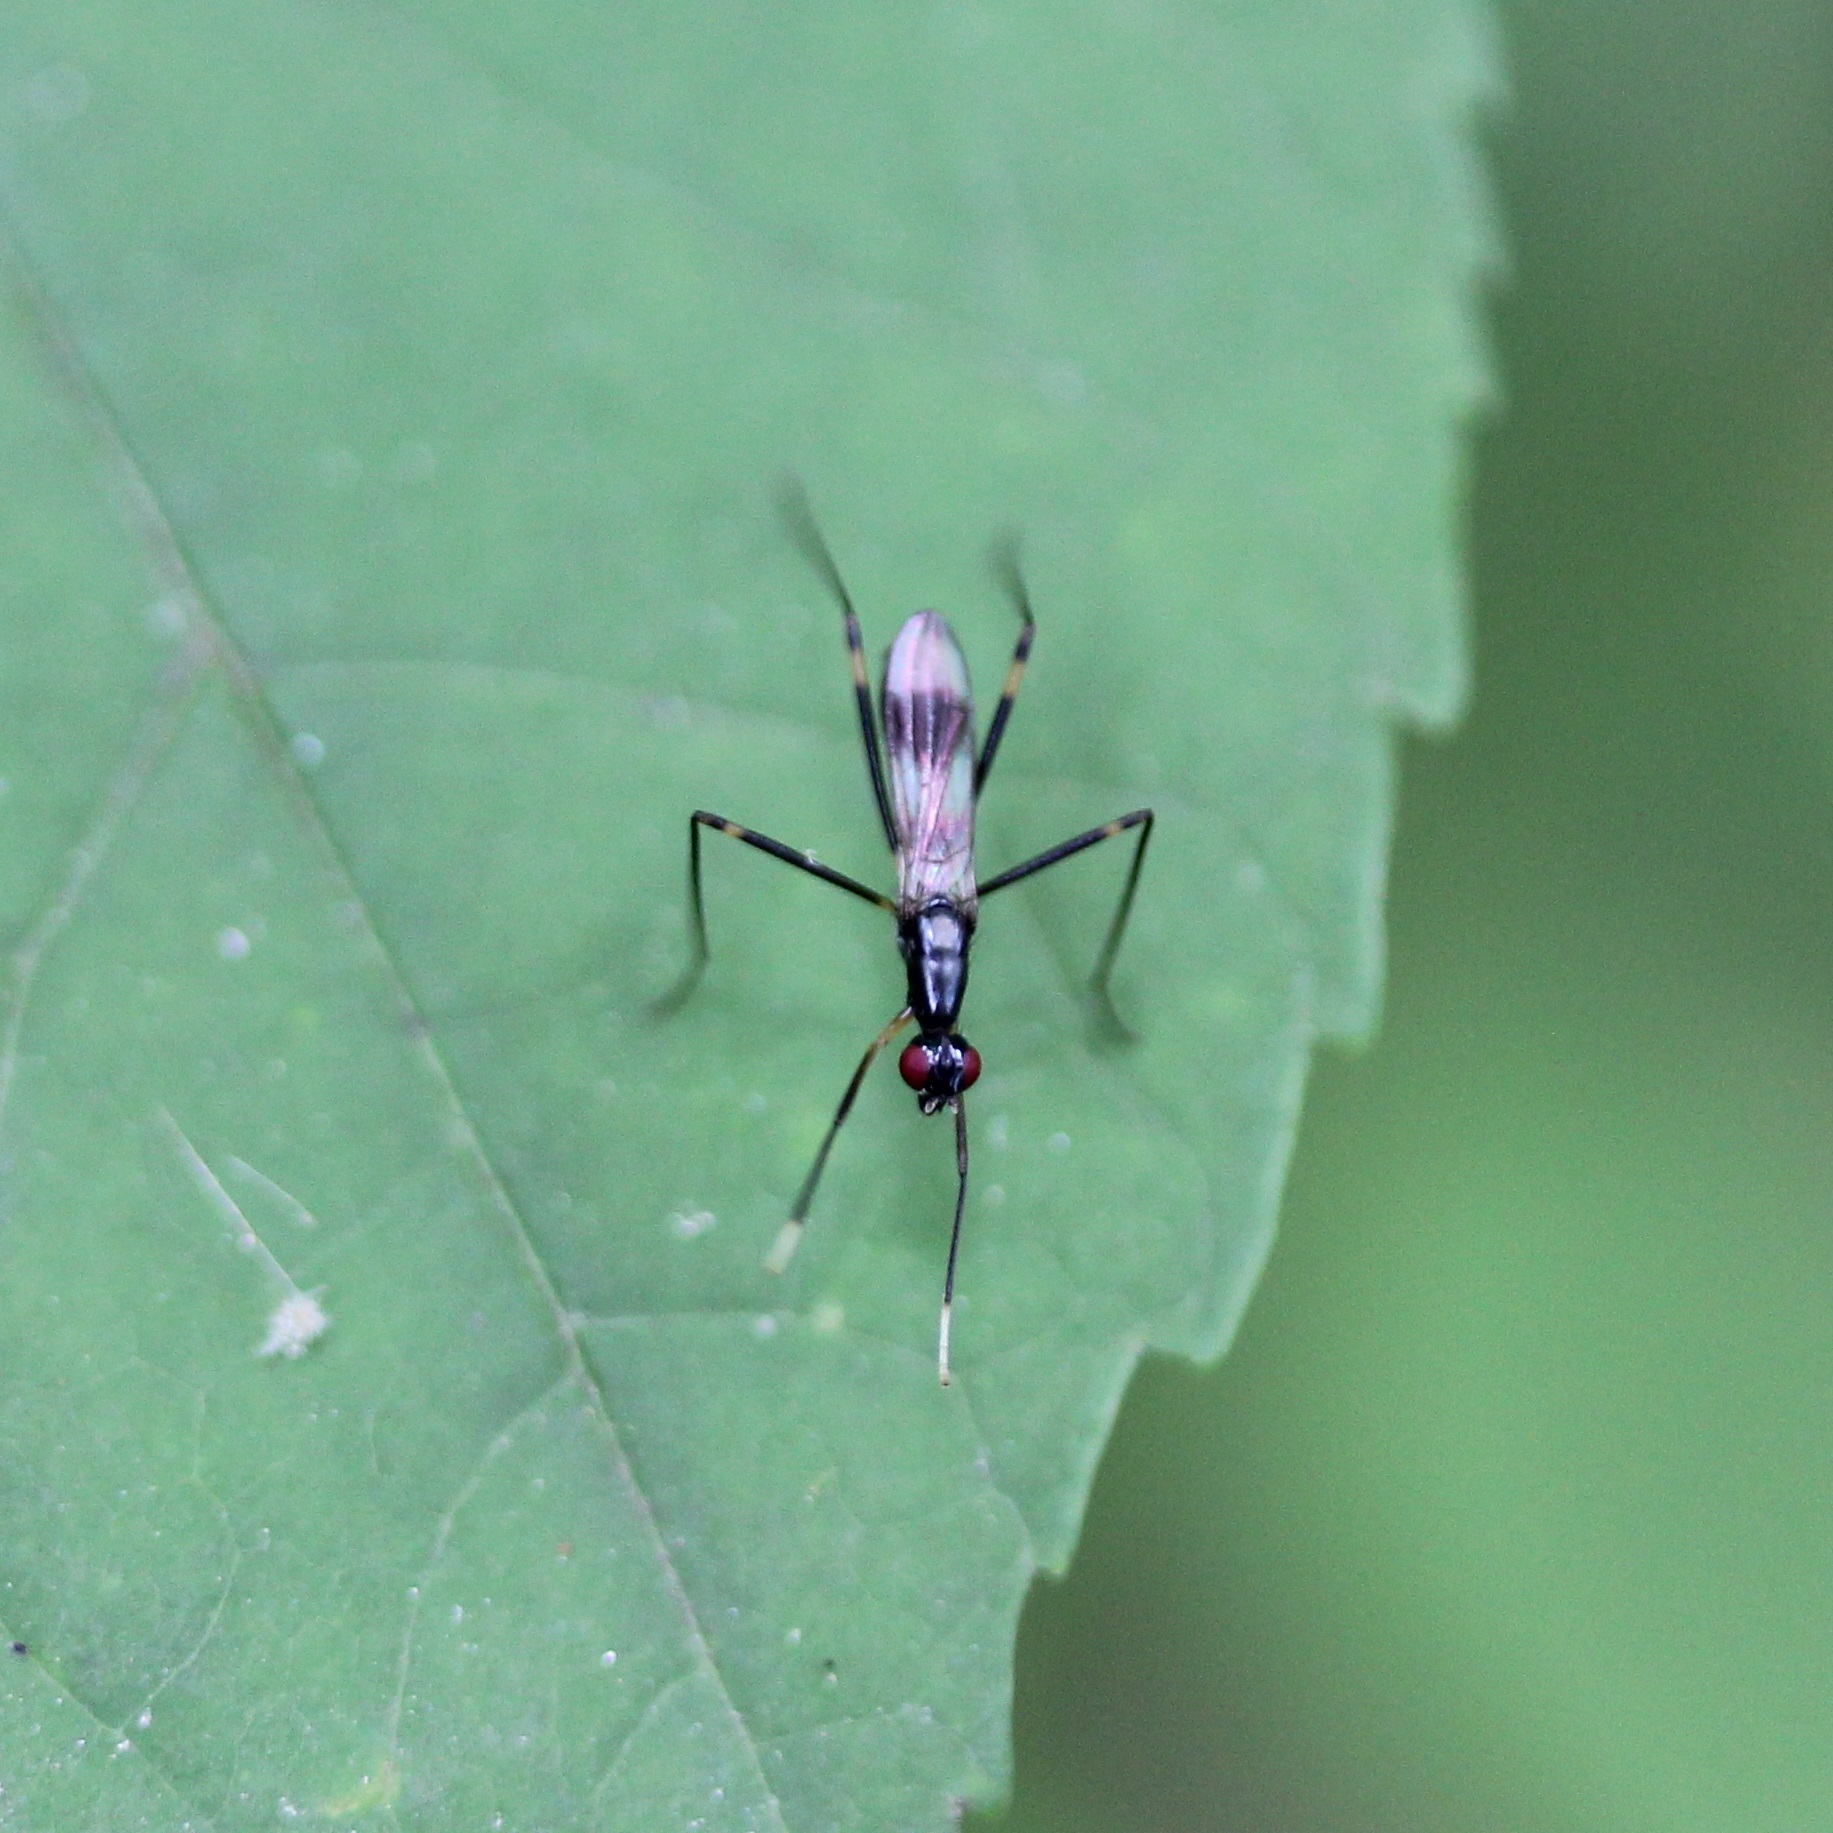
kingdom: Animalia
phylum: Arthropoda
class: Insecta
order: Diptera
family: Micropezidae
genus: Rainieria
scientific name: Rainieria antennaepes
